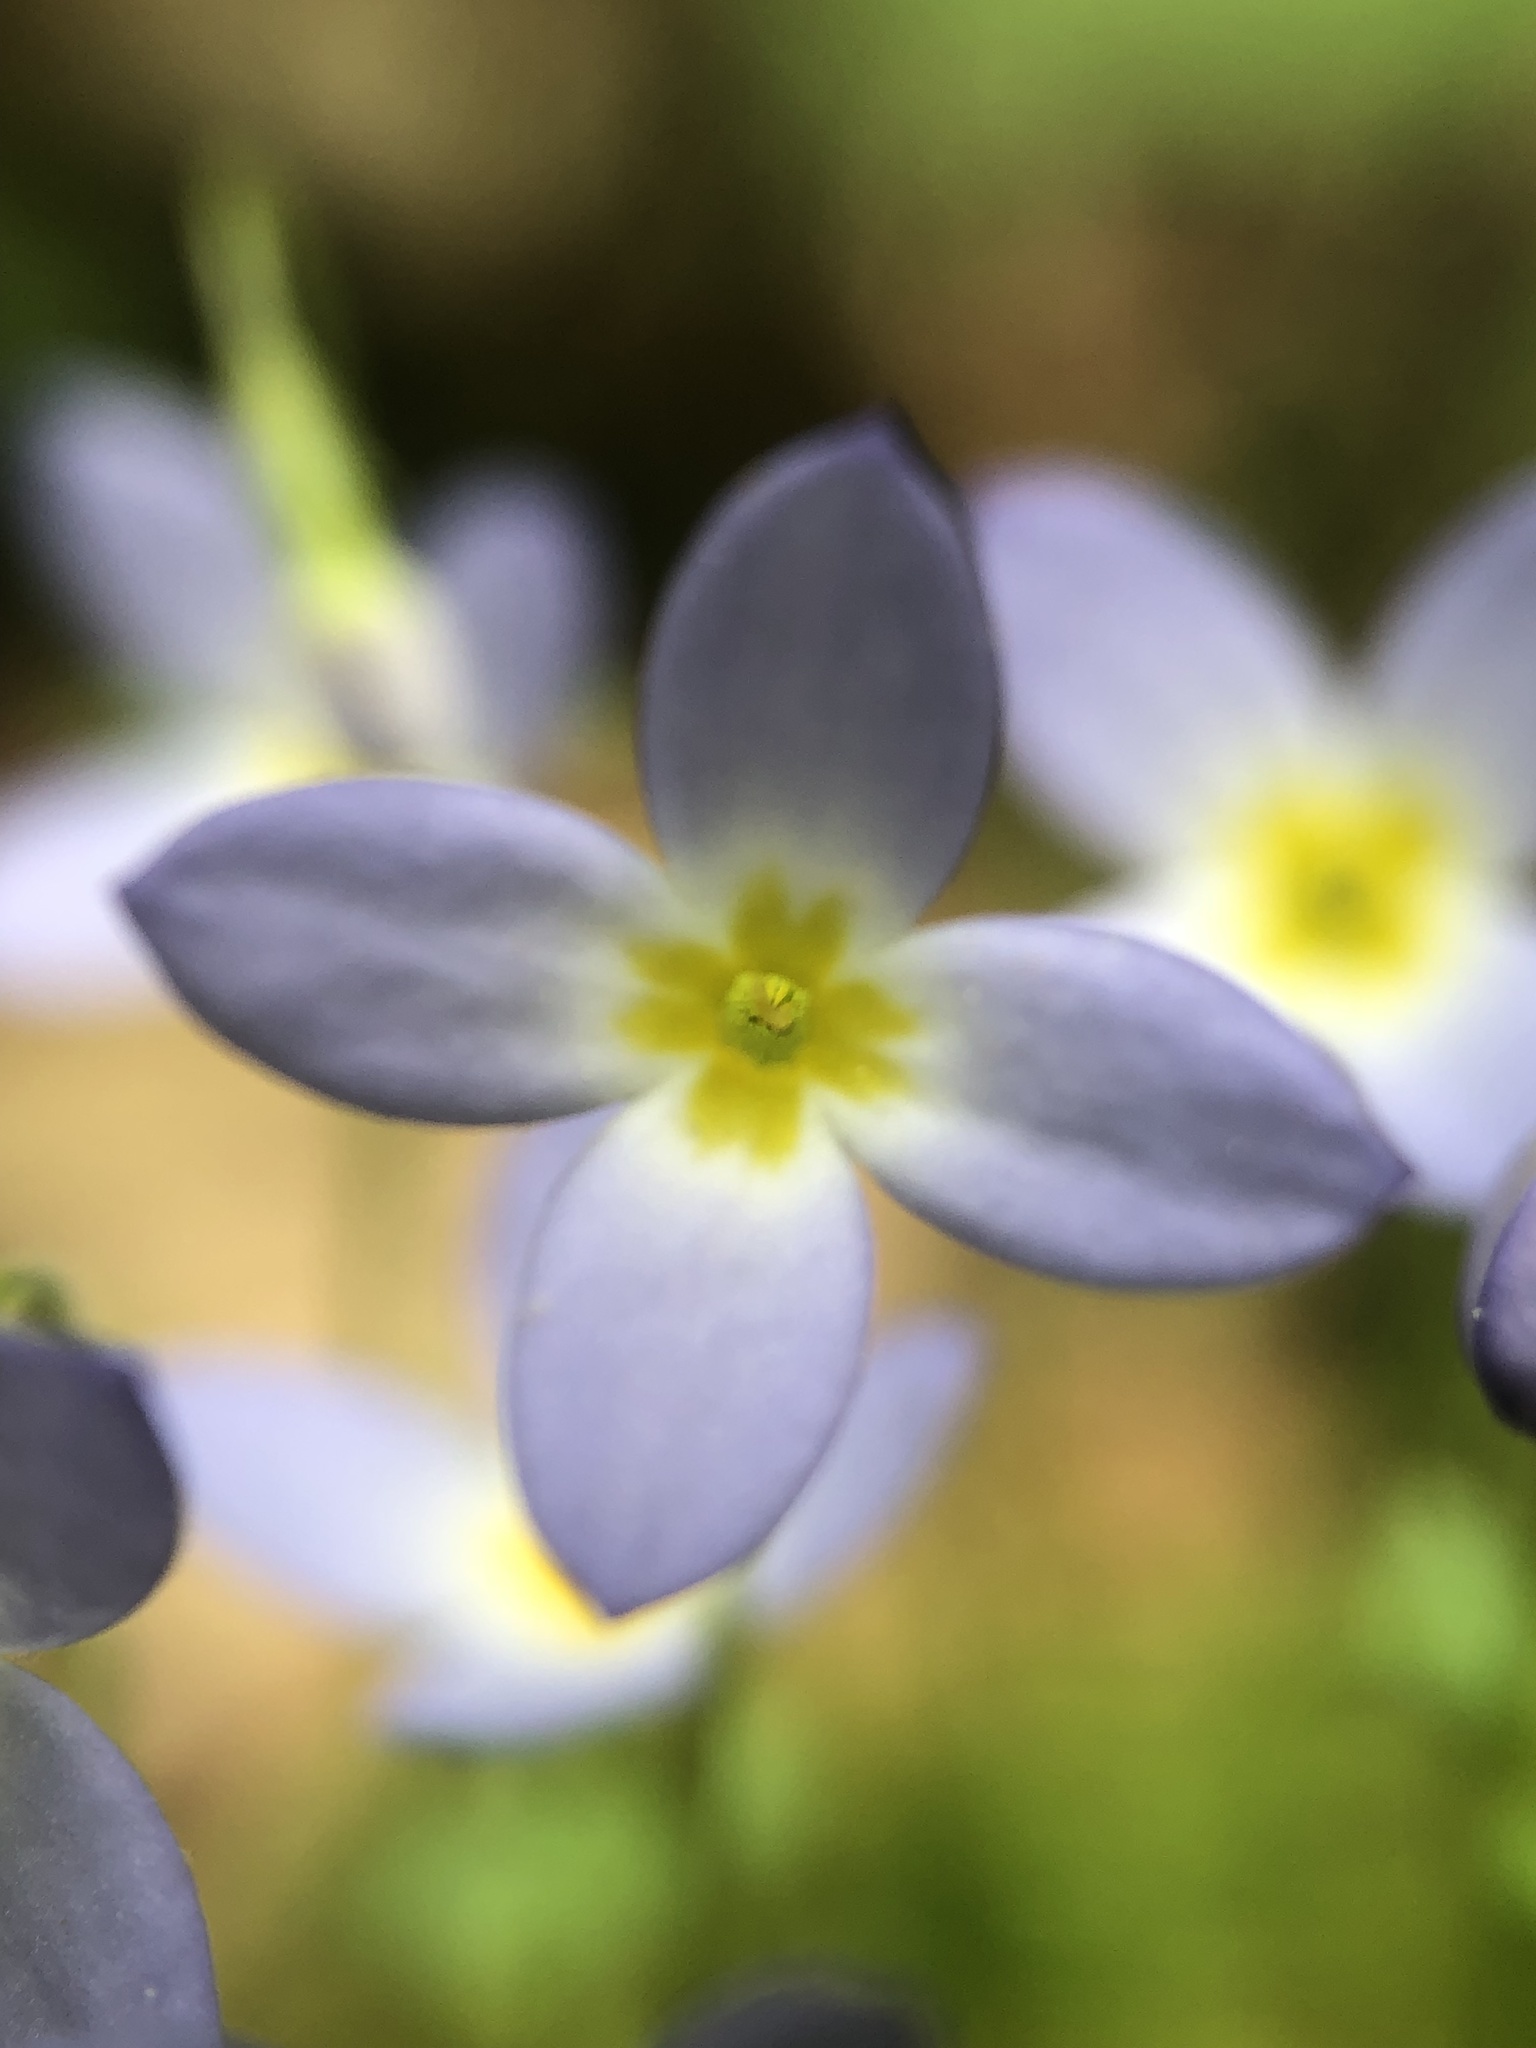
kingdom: Plantae
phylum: Tracheophyta
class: Magnoliopsida
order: Gentianales
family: Rubiaceae
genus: Houstonia
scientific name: Houstonia serpyllifolia
